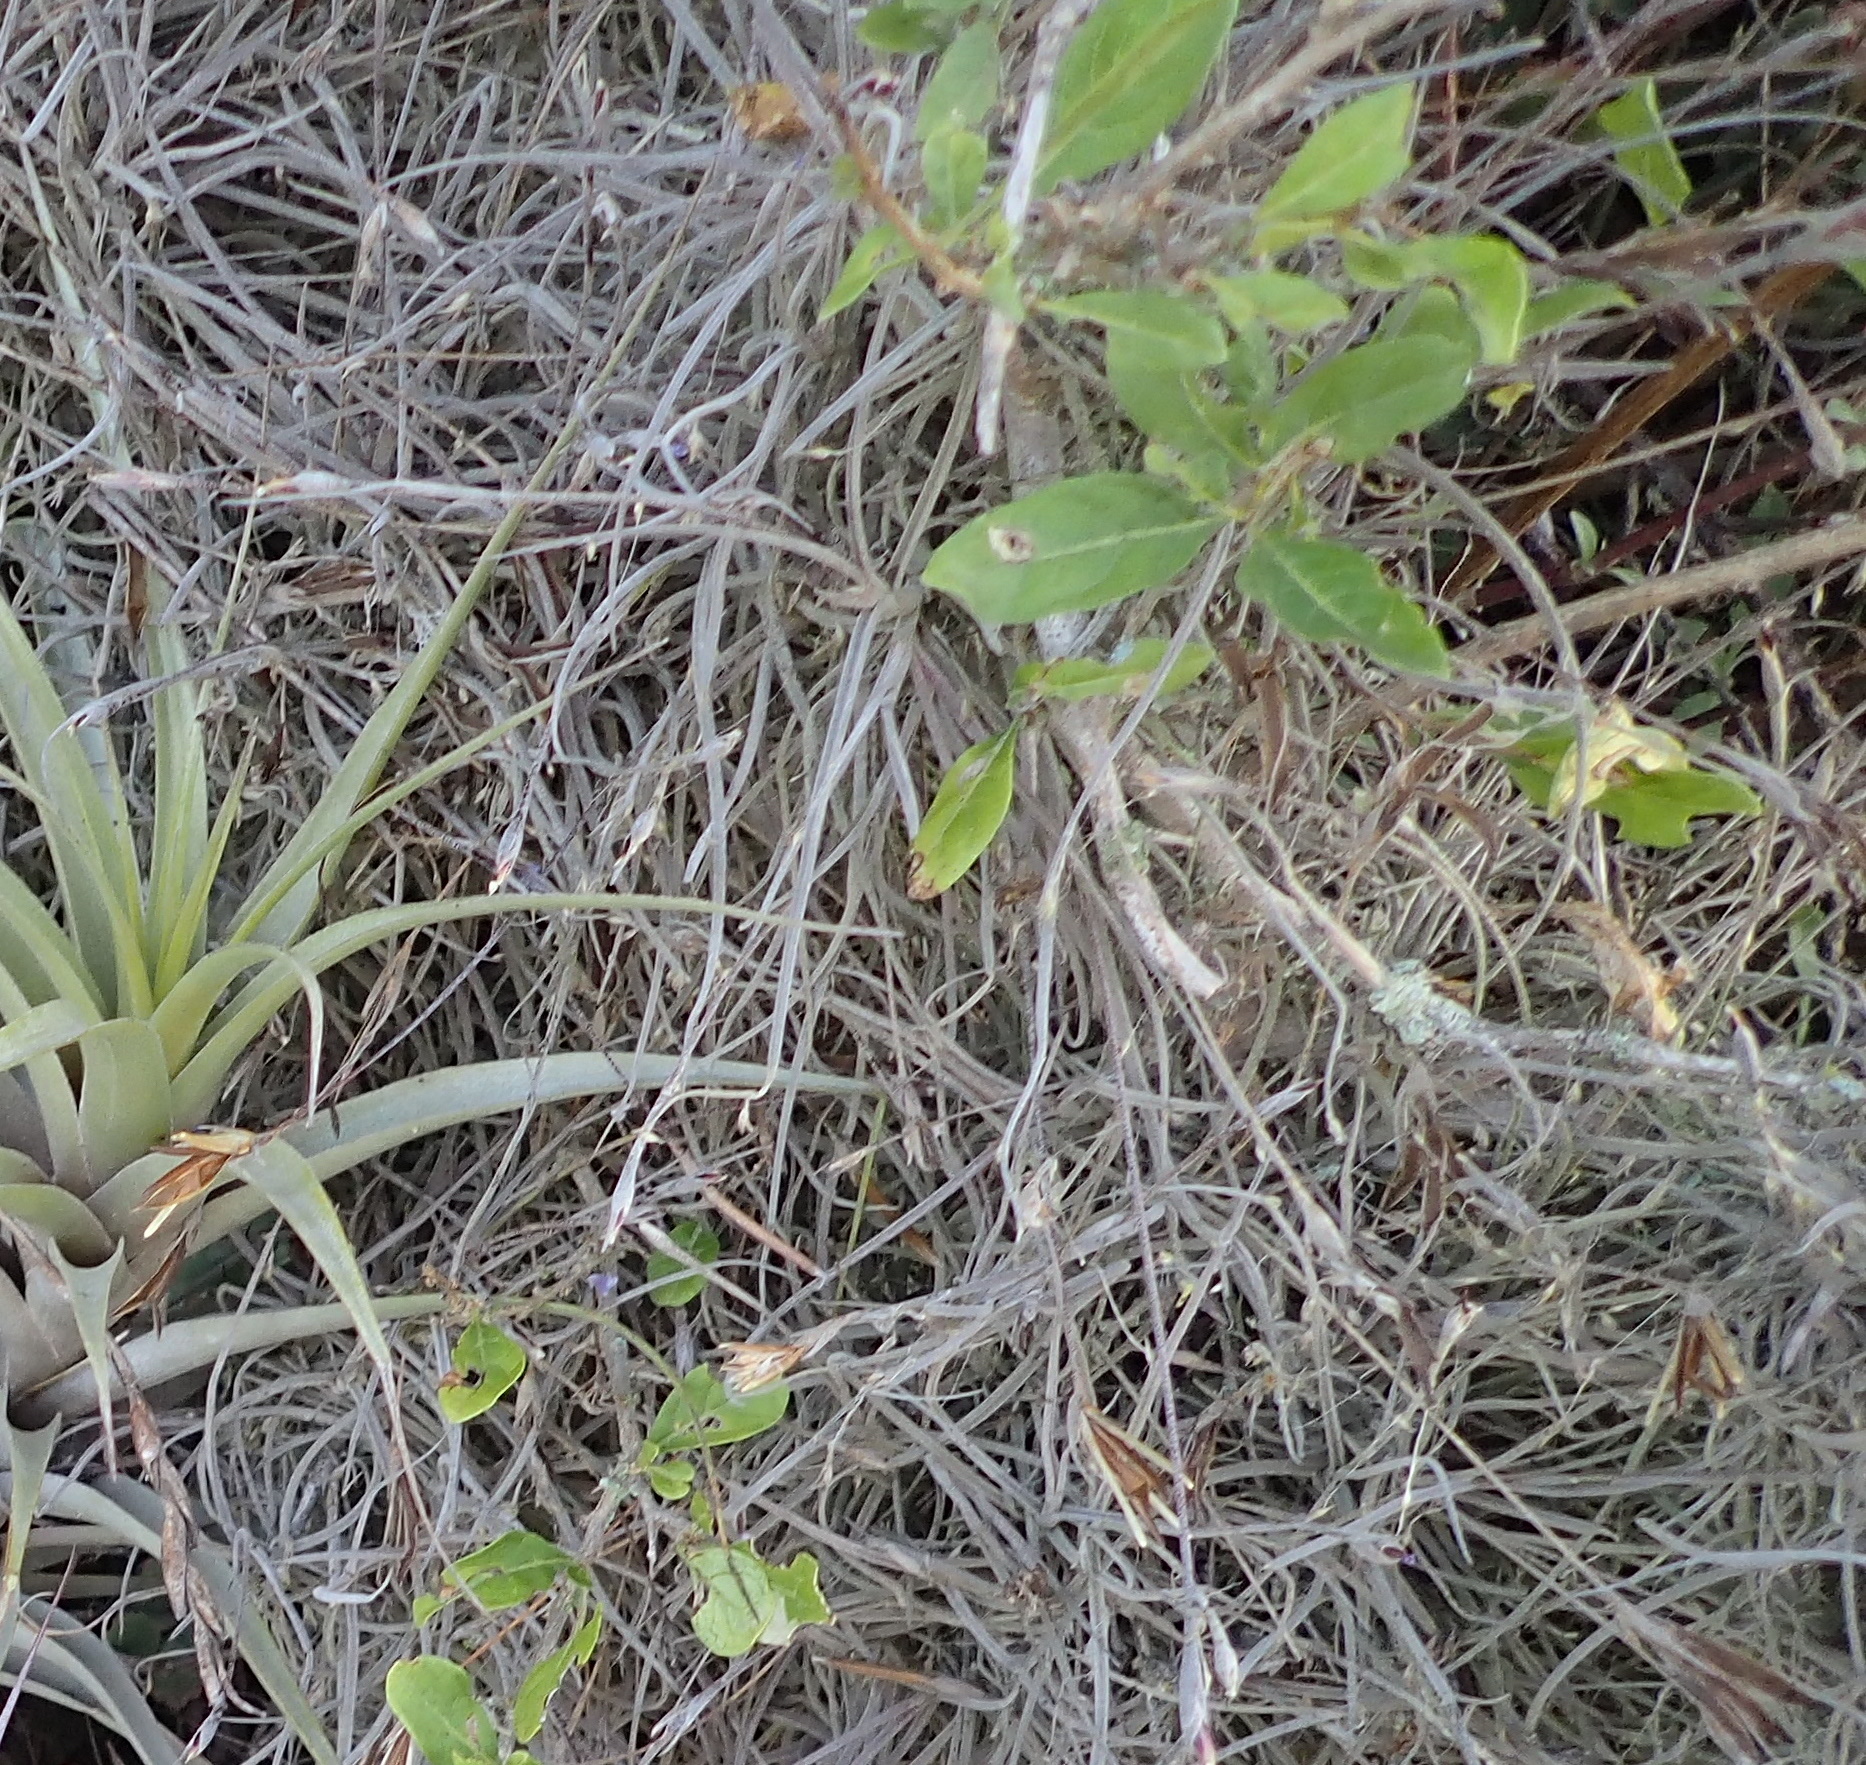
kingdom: Plantae
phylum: Tracheophyta
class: Liliopsida
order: Poales
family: Bromeliaceae
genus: Tillandsia
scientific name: Tillandsia recurvata
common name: Small ballmoss
